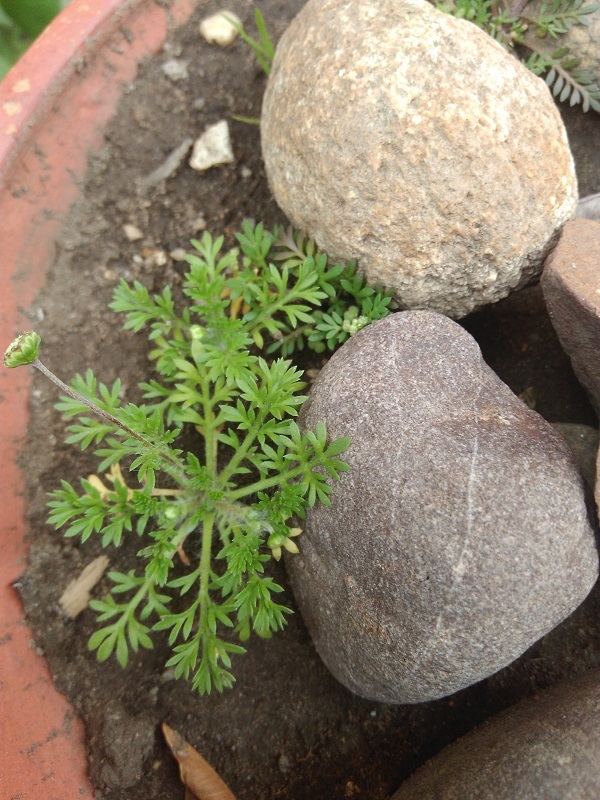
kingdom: Plantae
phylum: Tracheophyta
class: Magnoliopsida
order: Asterales
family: Asteraceae
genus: Cotula
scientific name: Cotula australis
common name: Australian waterbuttons
